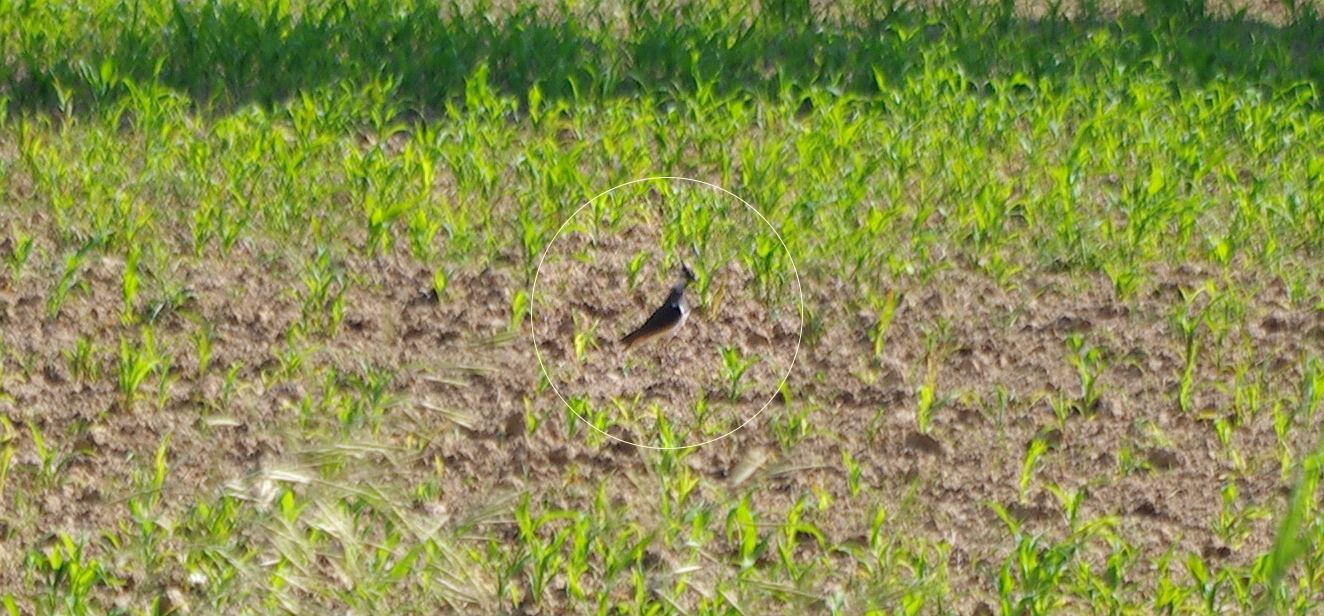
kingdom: Animalia
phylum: Chordata
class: Aves
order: Charadriiformes
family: Charadriidae
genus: Vanellus
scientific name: Vanellus vanellus
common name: Northern lapwing
